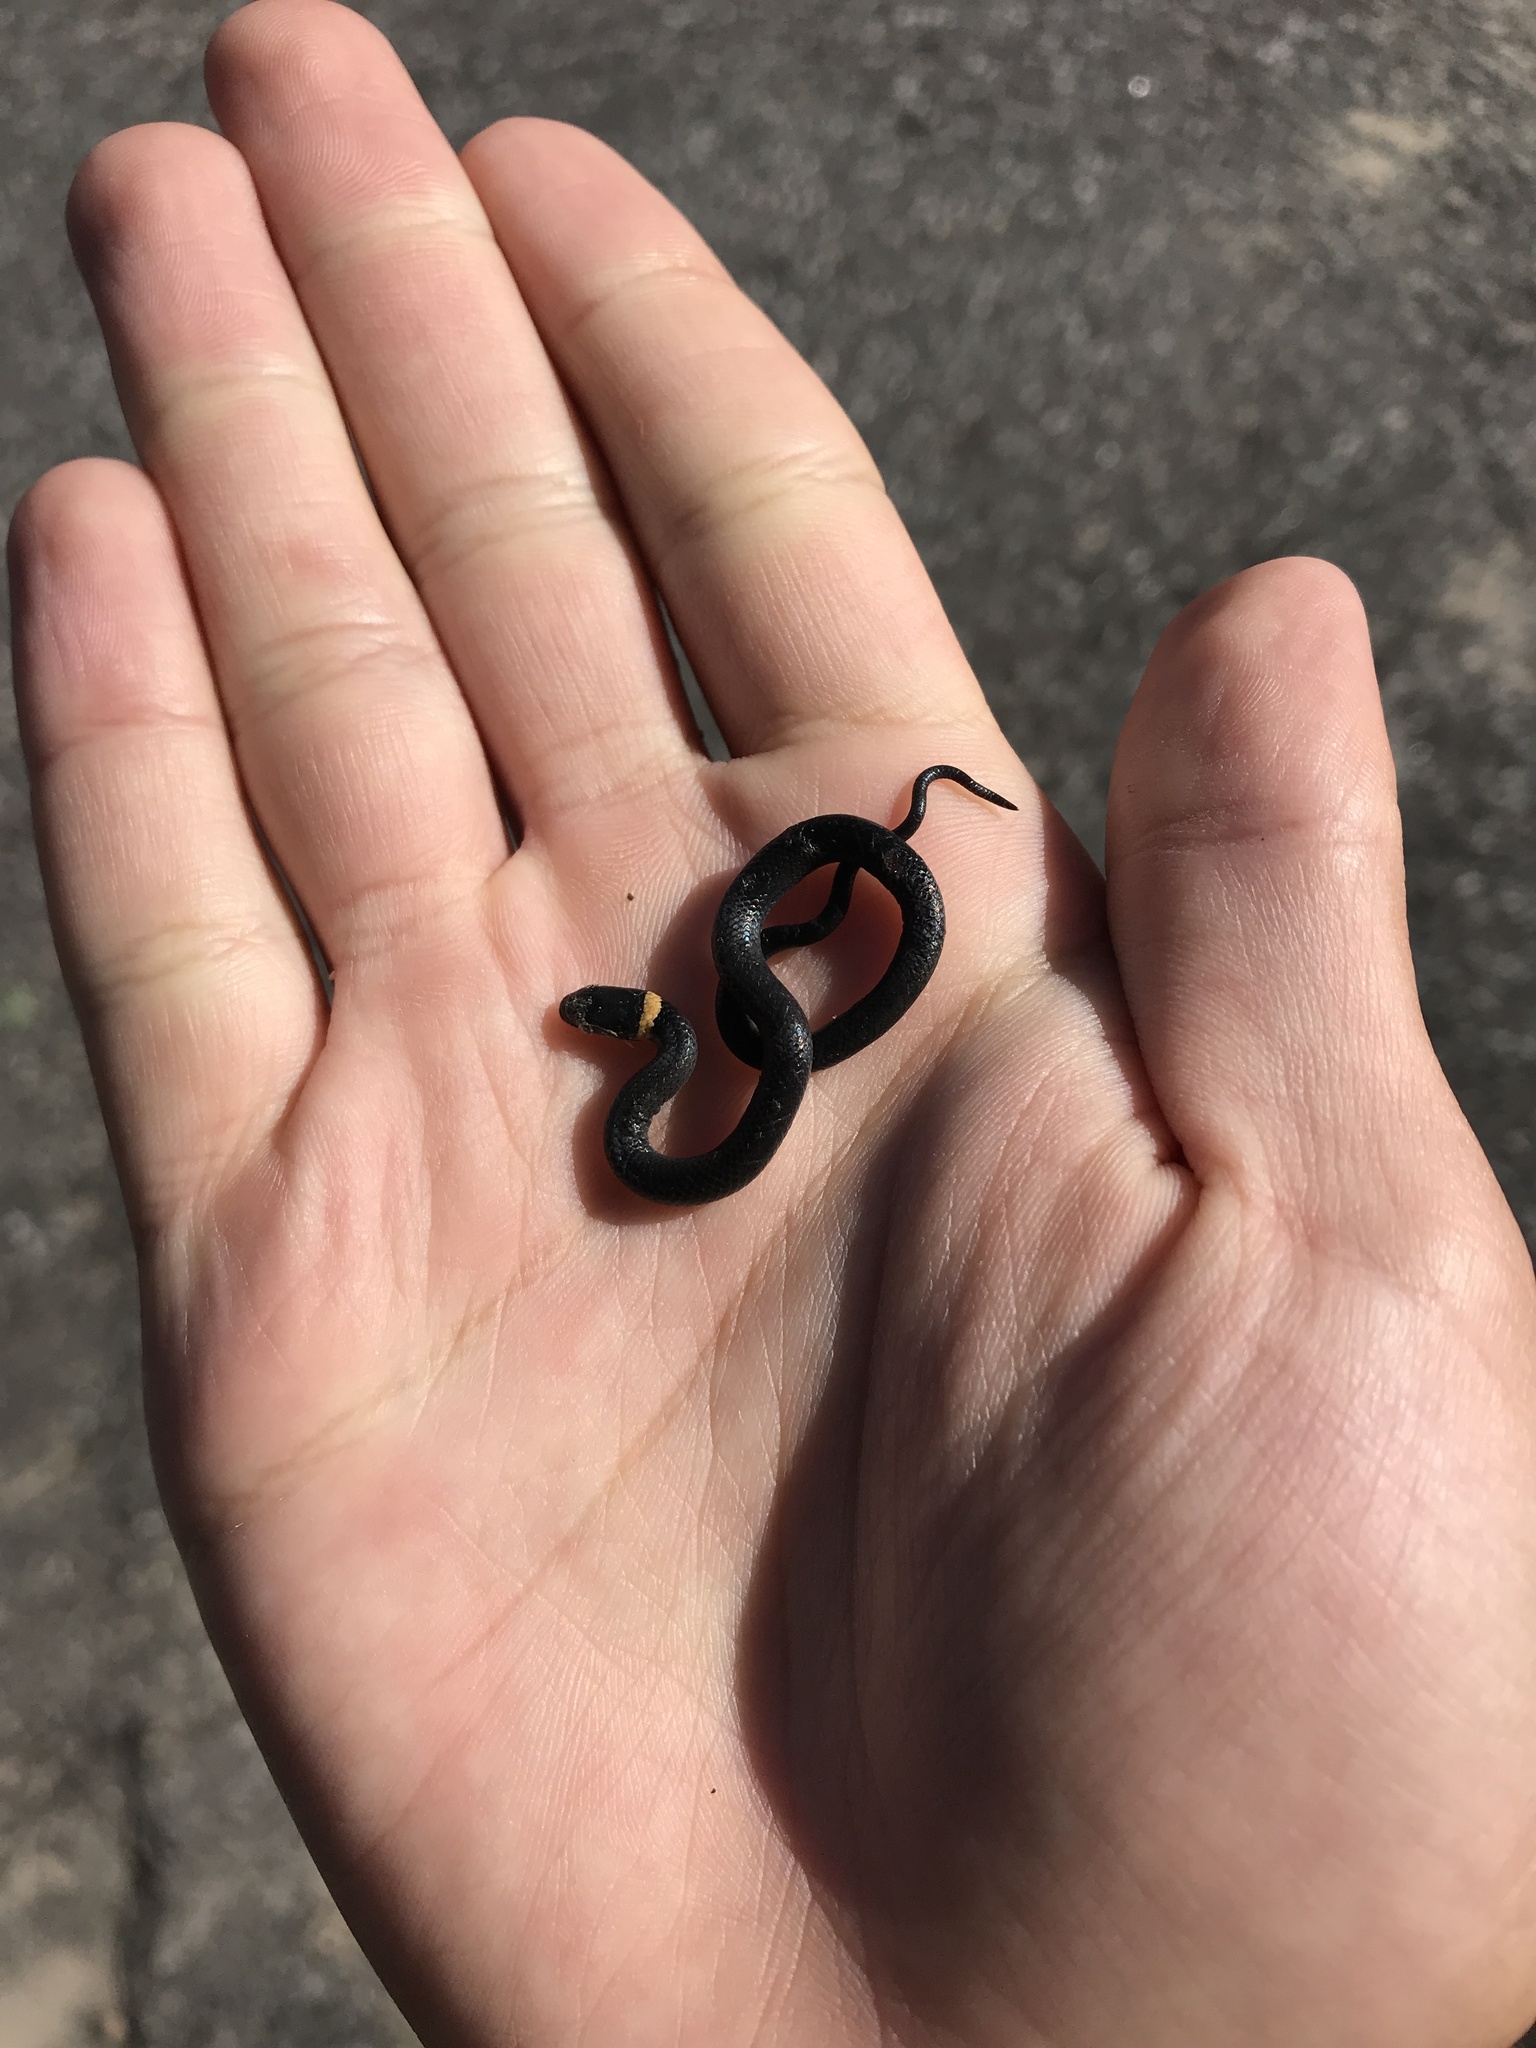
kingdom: Animalia
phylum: Chordata
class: Squamata
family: Colubridae
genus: Diadophis
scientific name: Diadophis punctatus
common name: Ringneck snake
